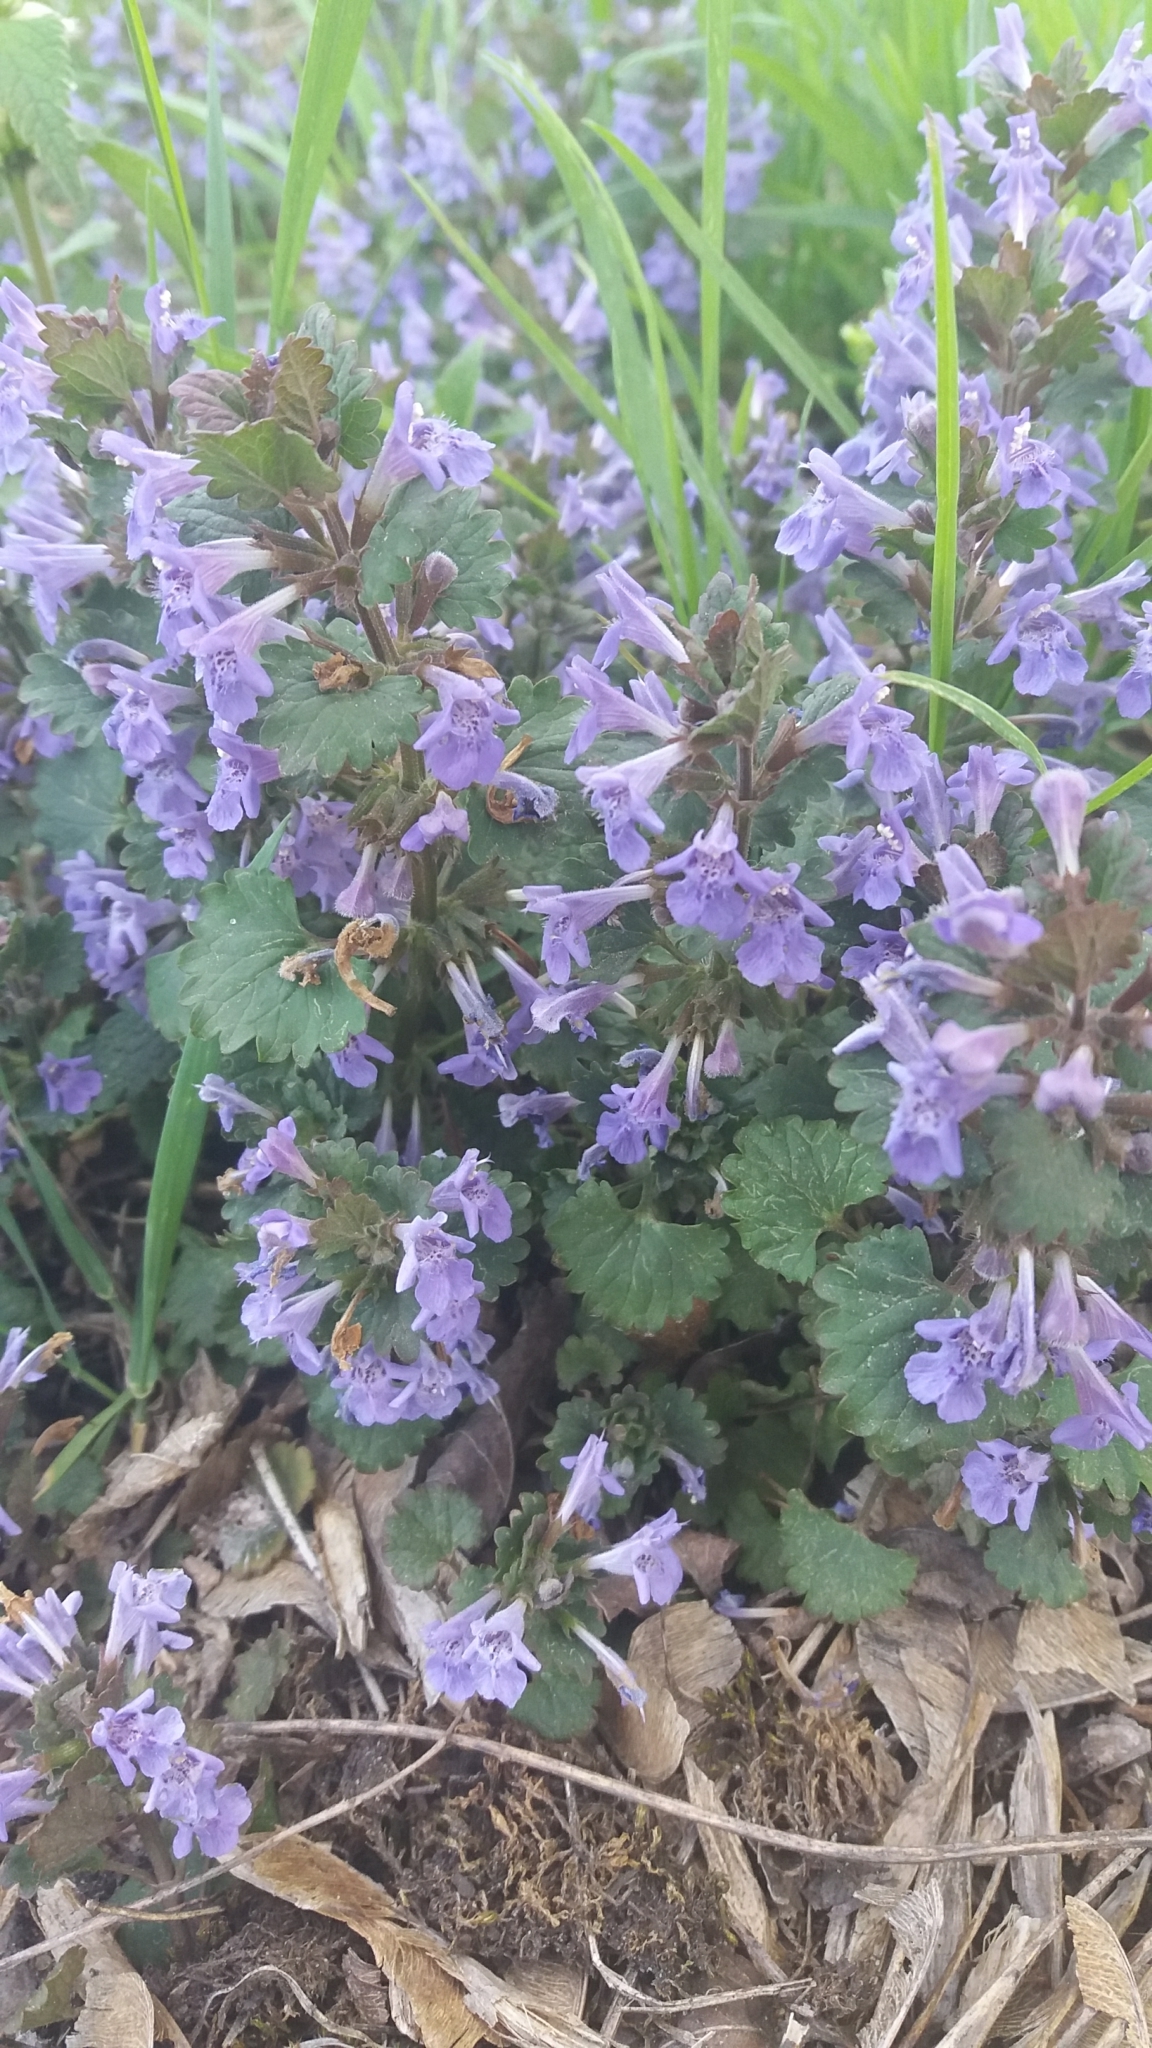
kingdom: Plantae
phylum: Tracheophyta
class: Magnoliopsida
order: Lamiales
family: Lamiaceae
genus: Glechoma
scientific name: Glechoma hederacea
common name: Ground ivy
